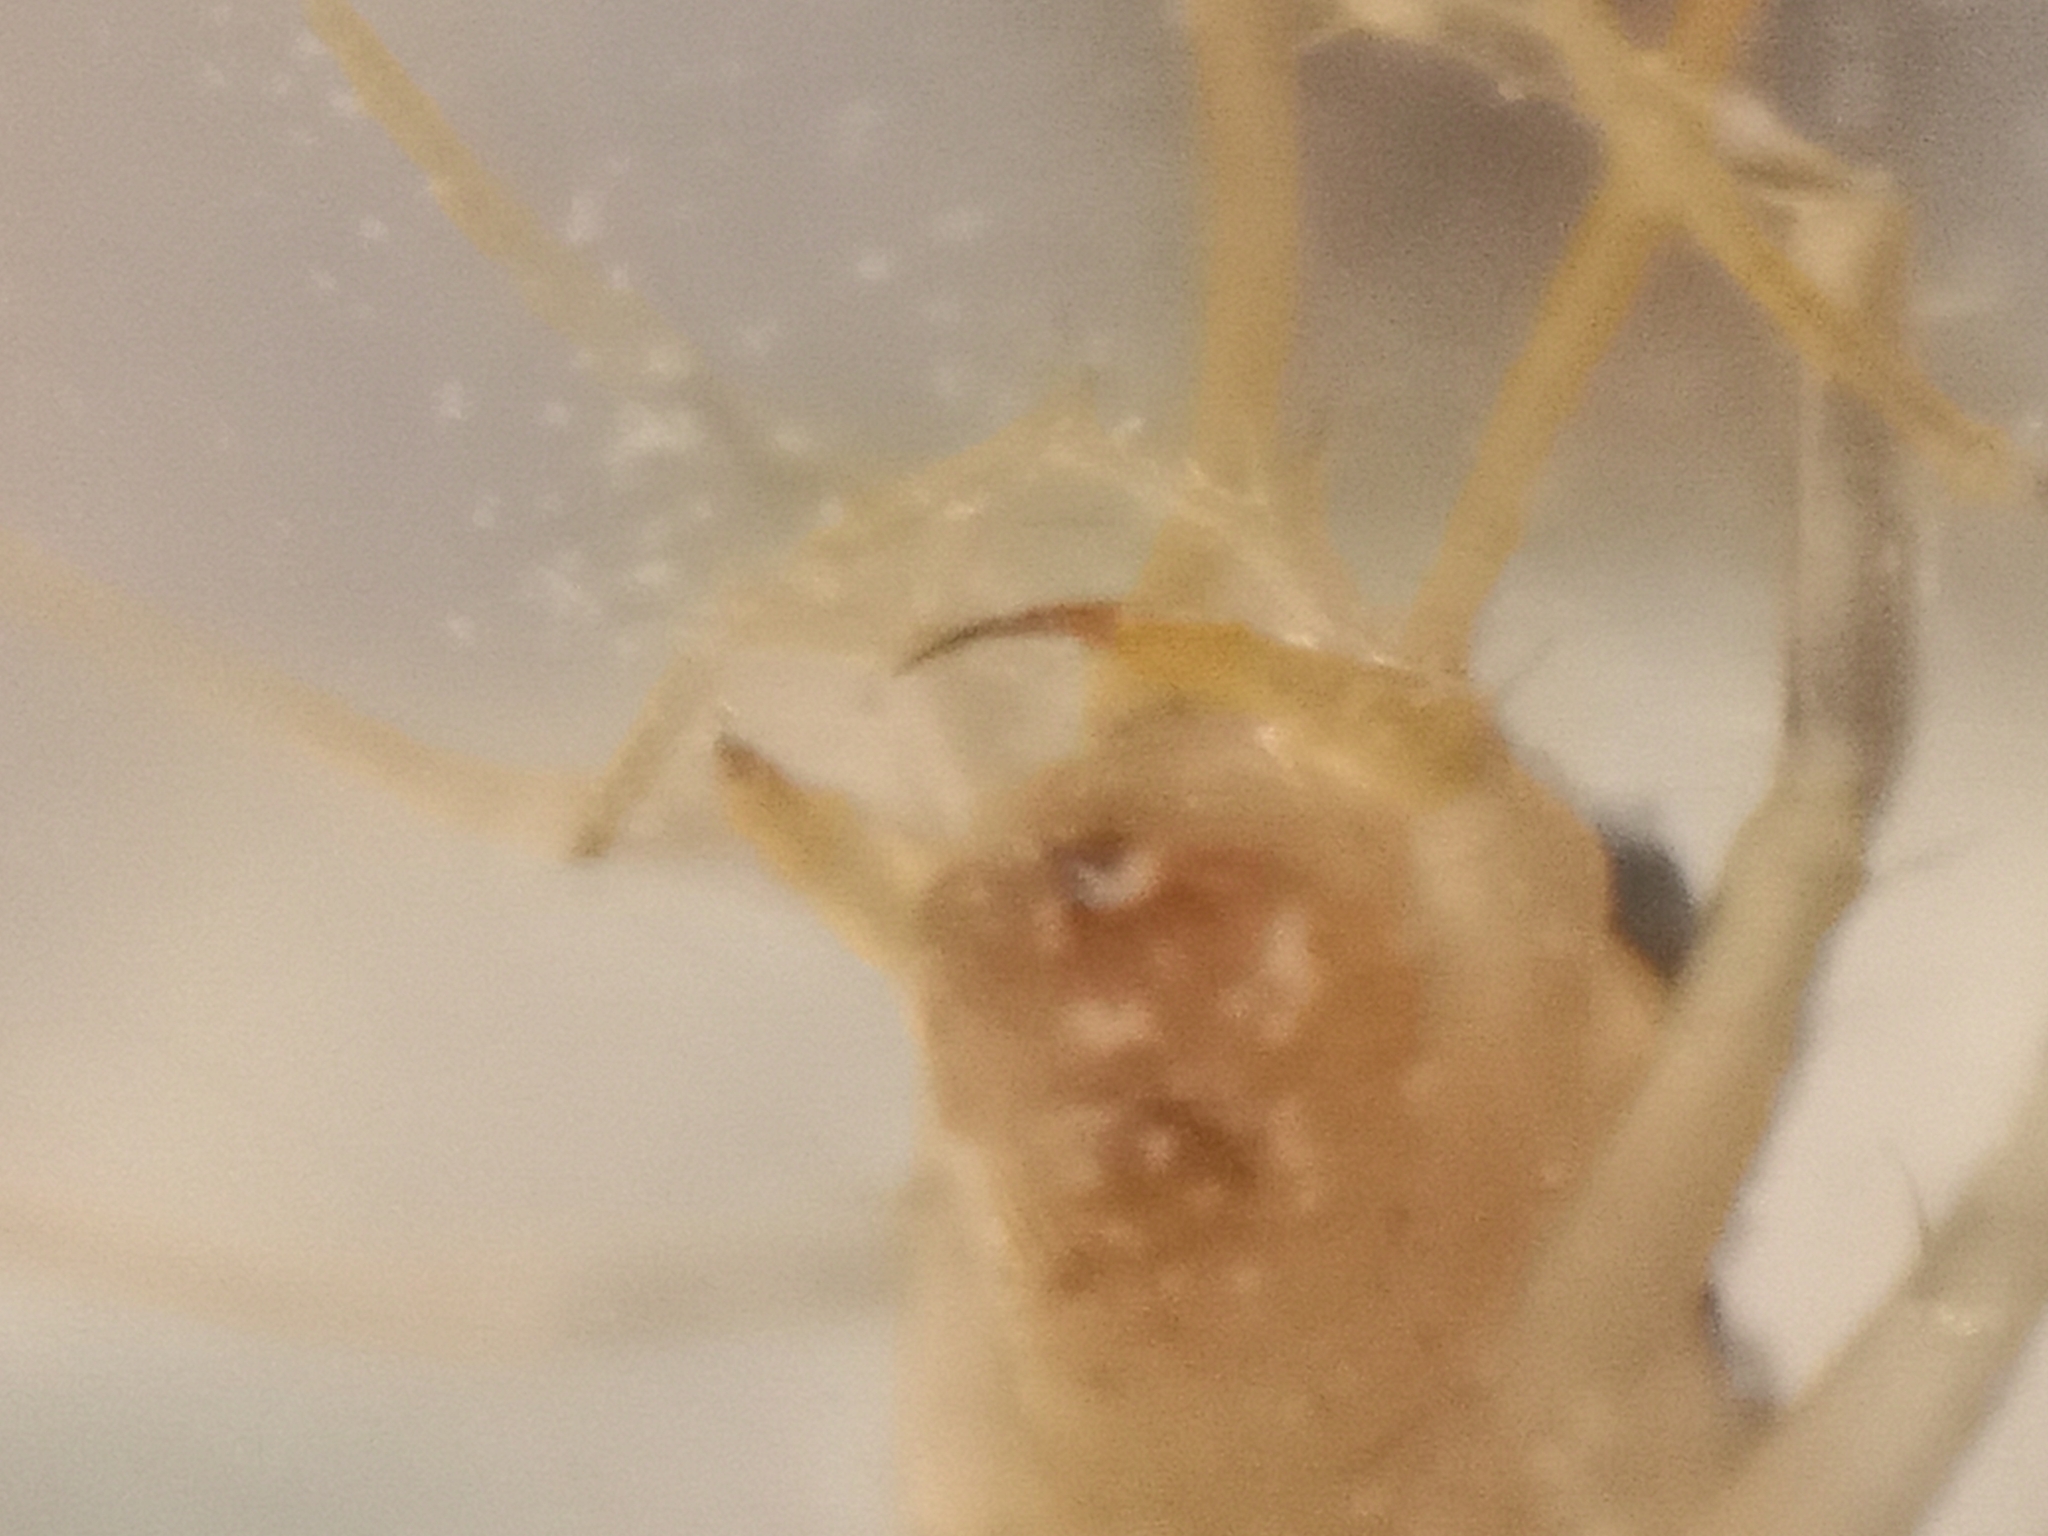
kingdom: Animalia
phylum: Arthropoda
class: Chilopoda
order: Scutigeromorpha
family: Scutigeridae
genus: Scutigera
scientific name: Scutigera coleoptrata
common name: House centipede
